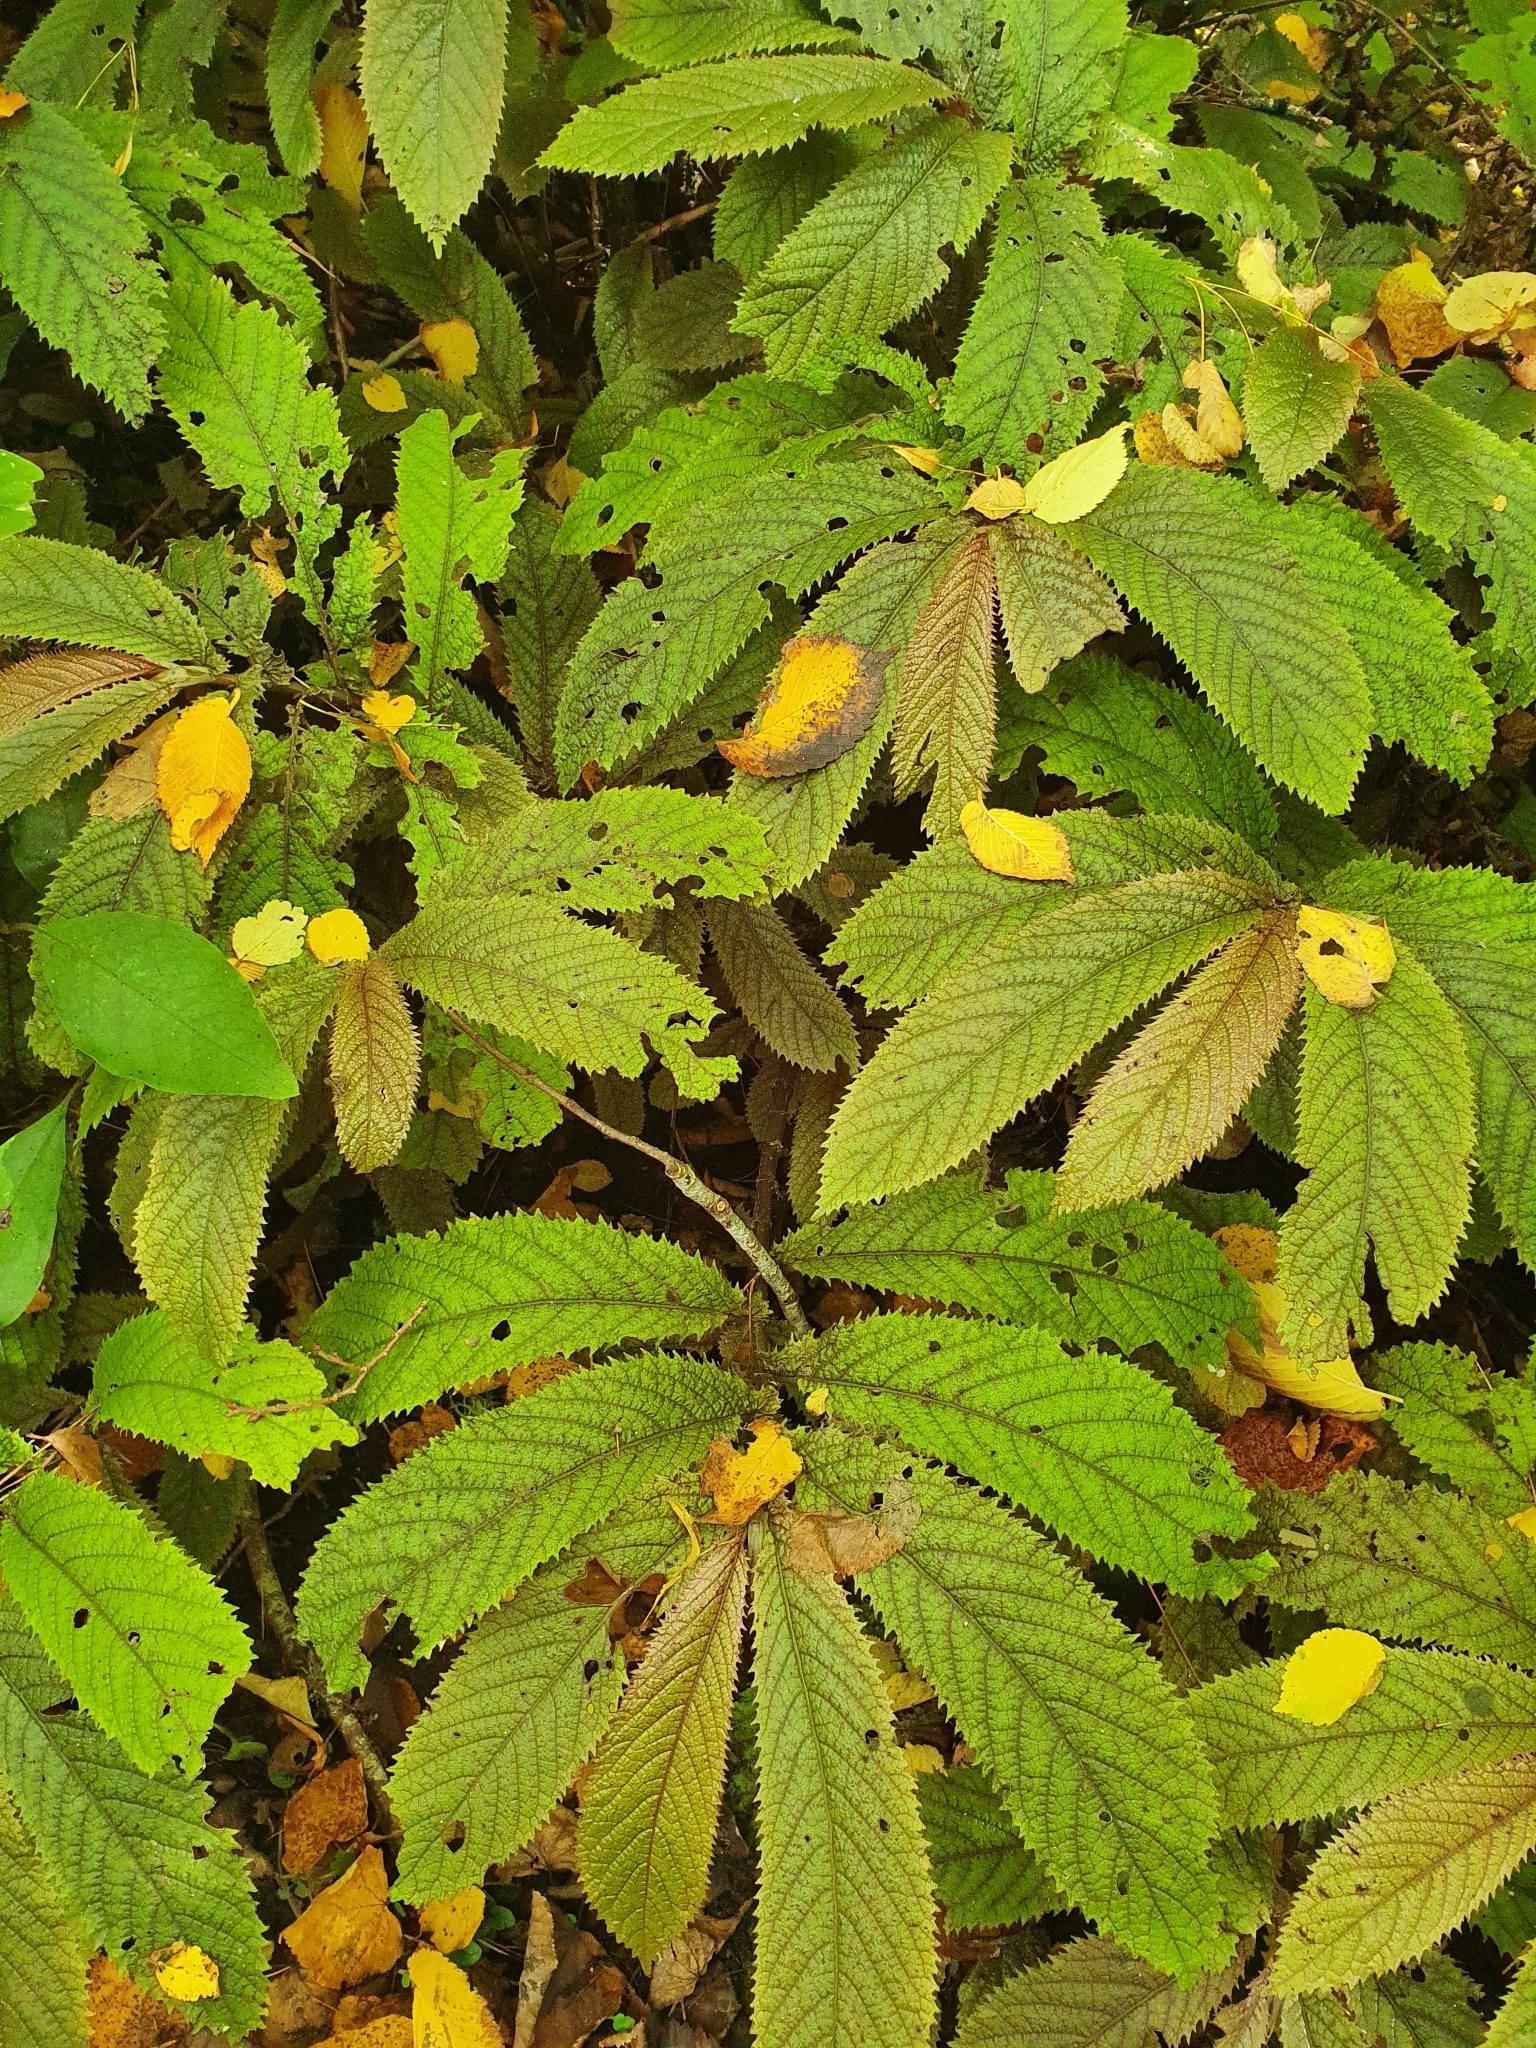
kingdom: Plantae
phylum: Tracheophyta
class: Magnoliopsida
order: Rosales
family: Urticaceae
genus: Elatostema
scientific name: Elatostema rugosum
